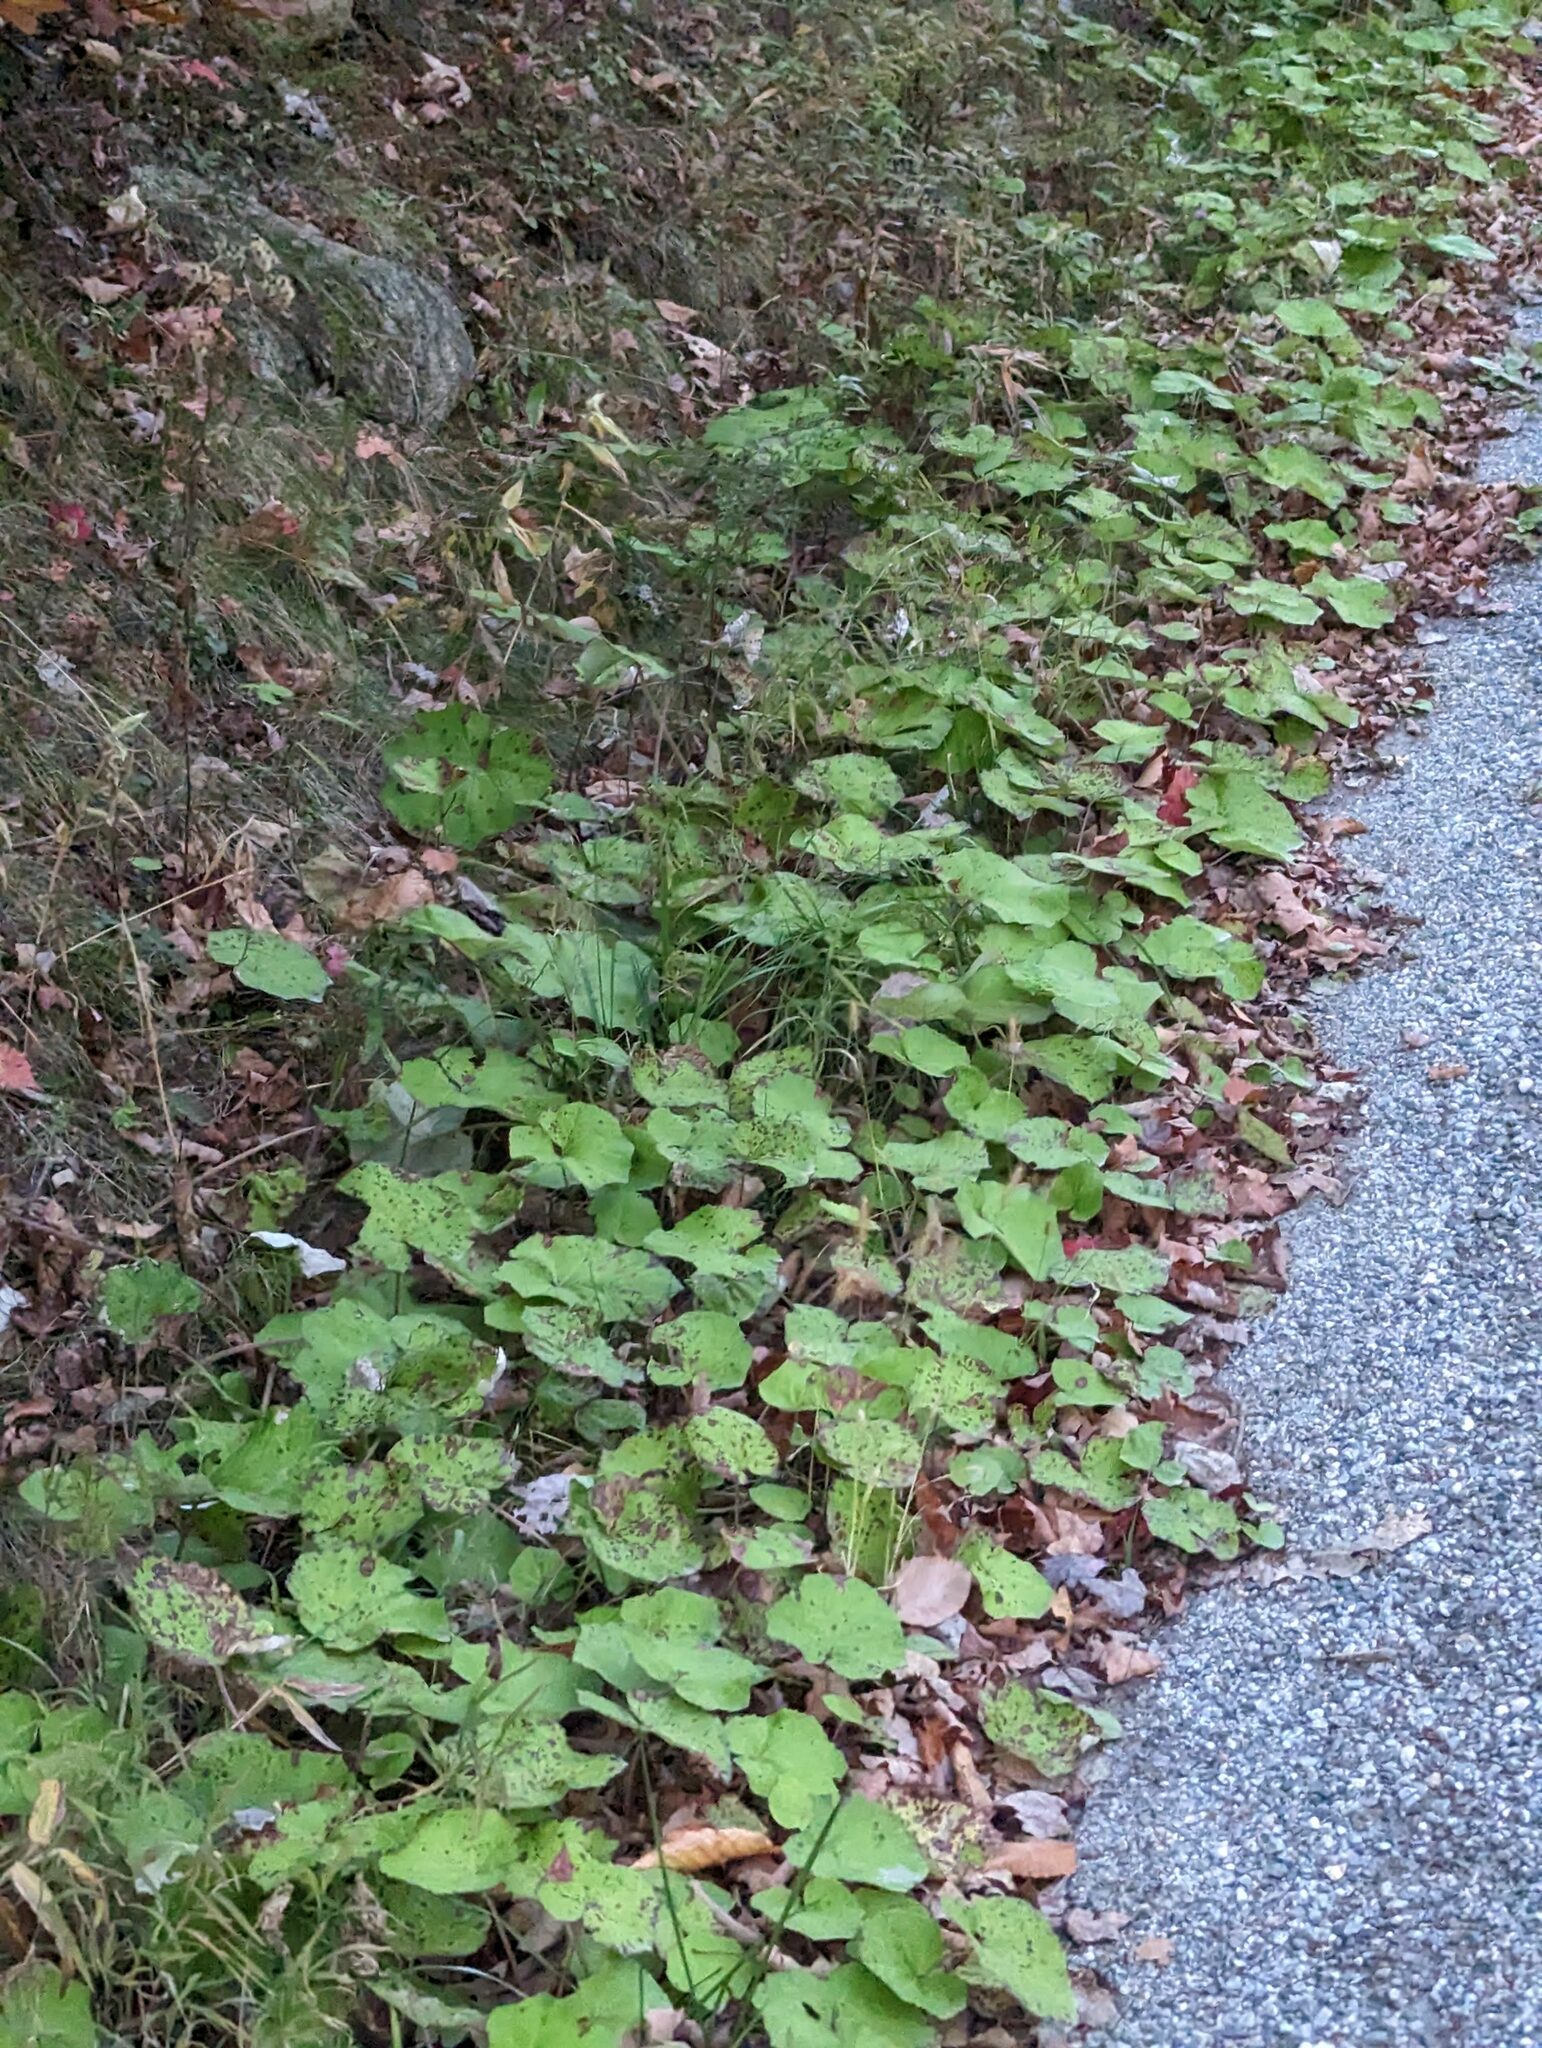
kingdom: Plantae
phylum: Tracheophyta
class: Magnoliopsida
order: Asterales
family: Asteraceae
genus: Tussilago
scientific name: Tussilago farfara
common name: Coltsfoot
